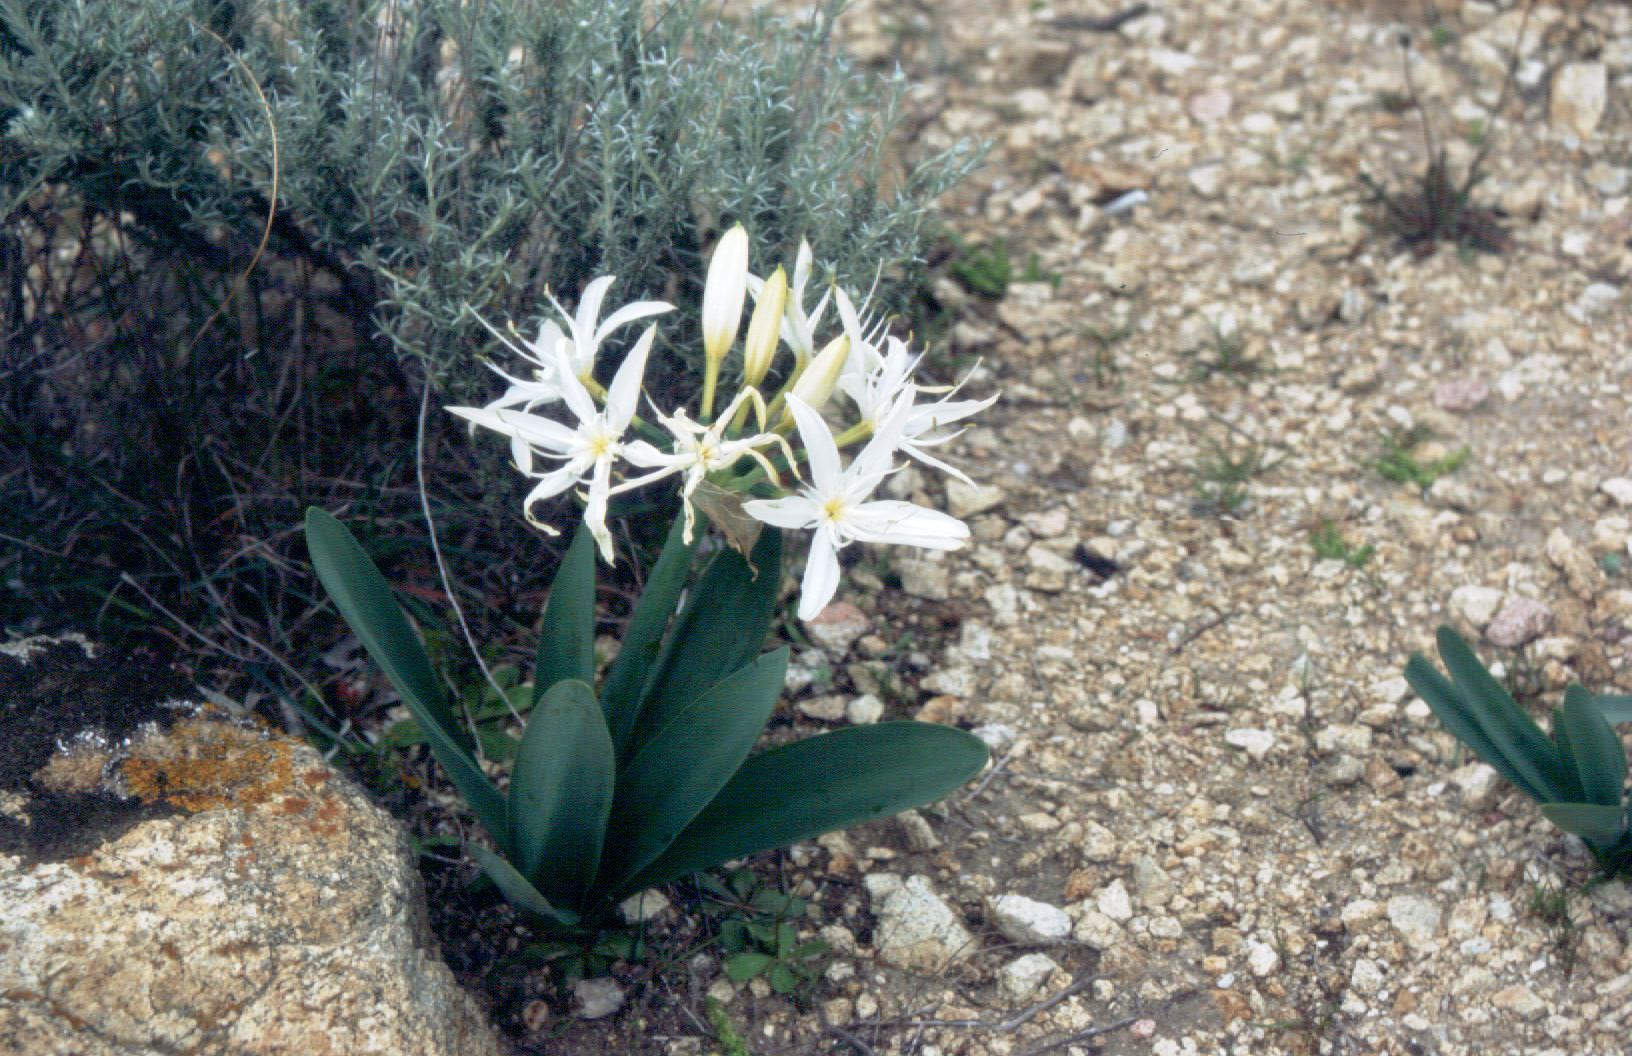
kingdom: Plantae
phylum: Tracheophyta
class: Liliopsida
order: Asparagales
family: Amaryllidaceae
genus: Pancratium
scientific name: Pancratium illyricum
